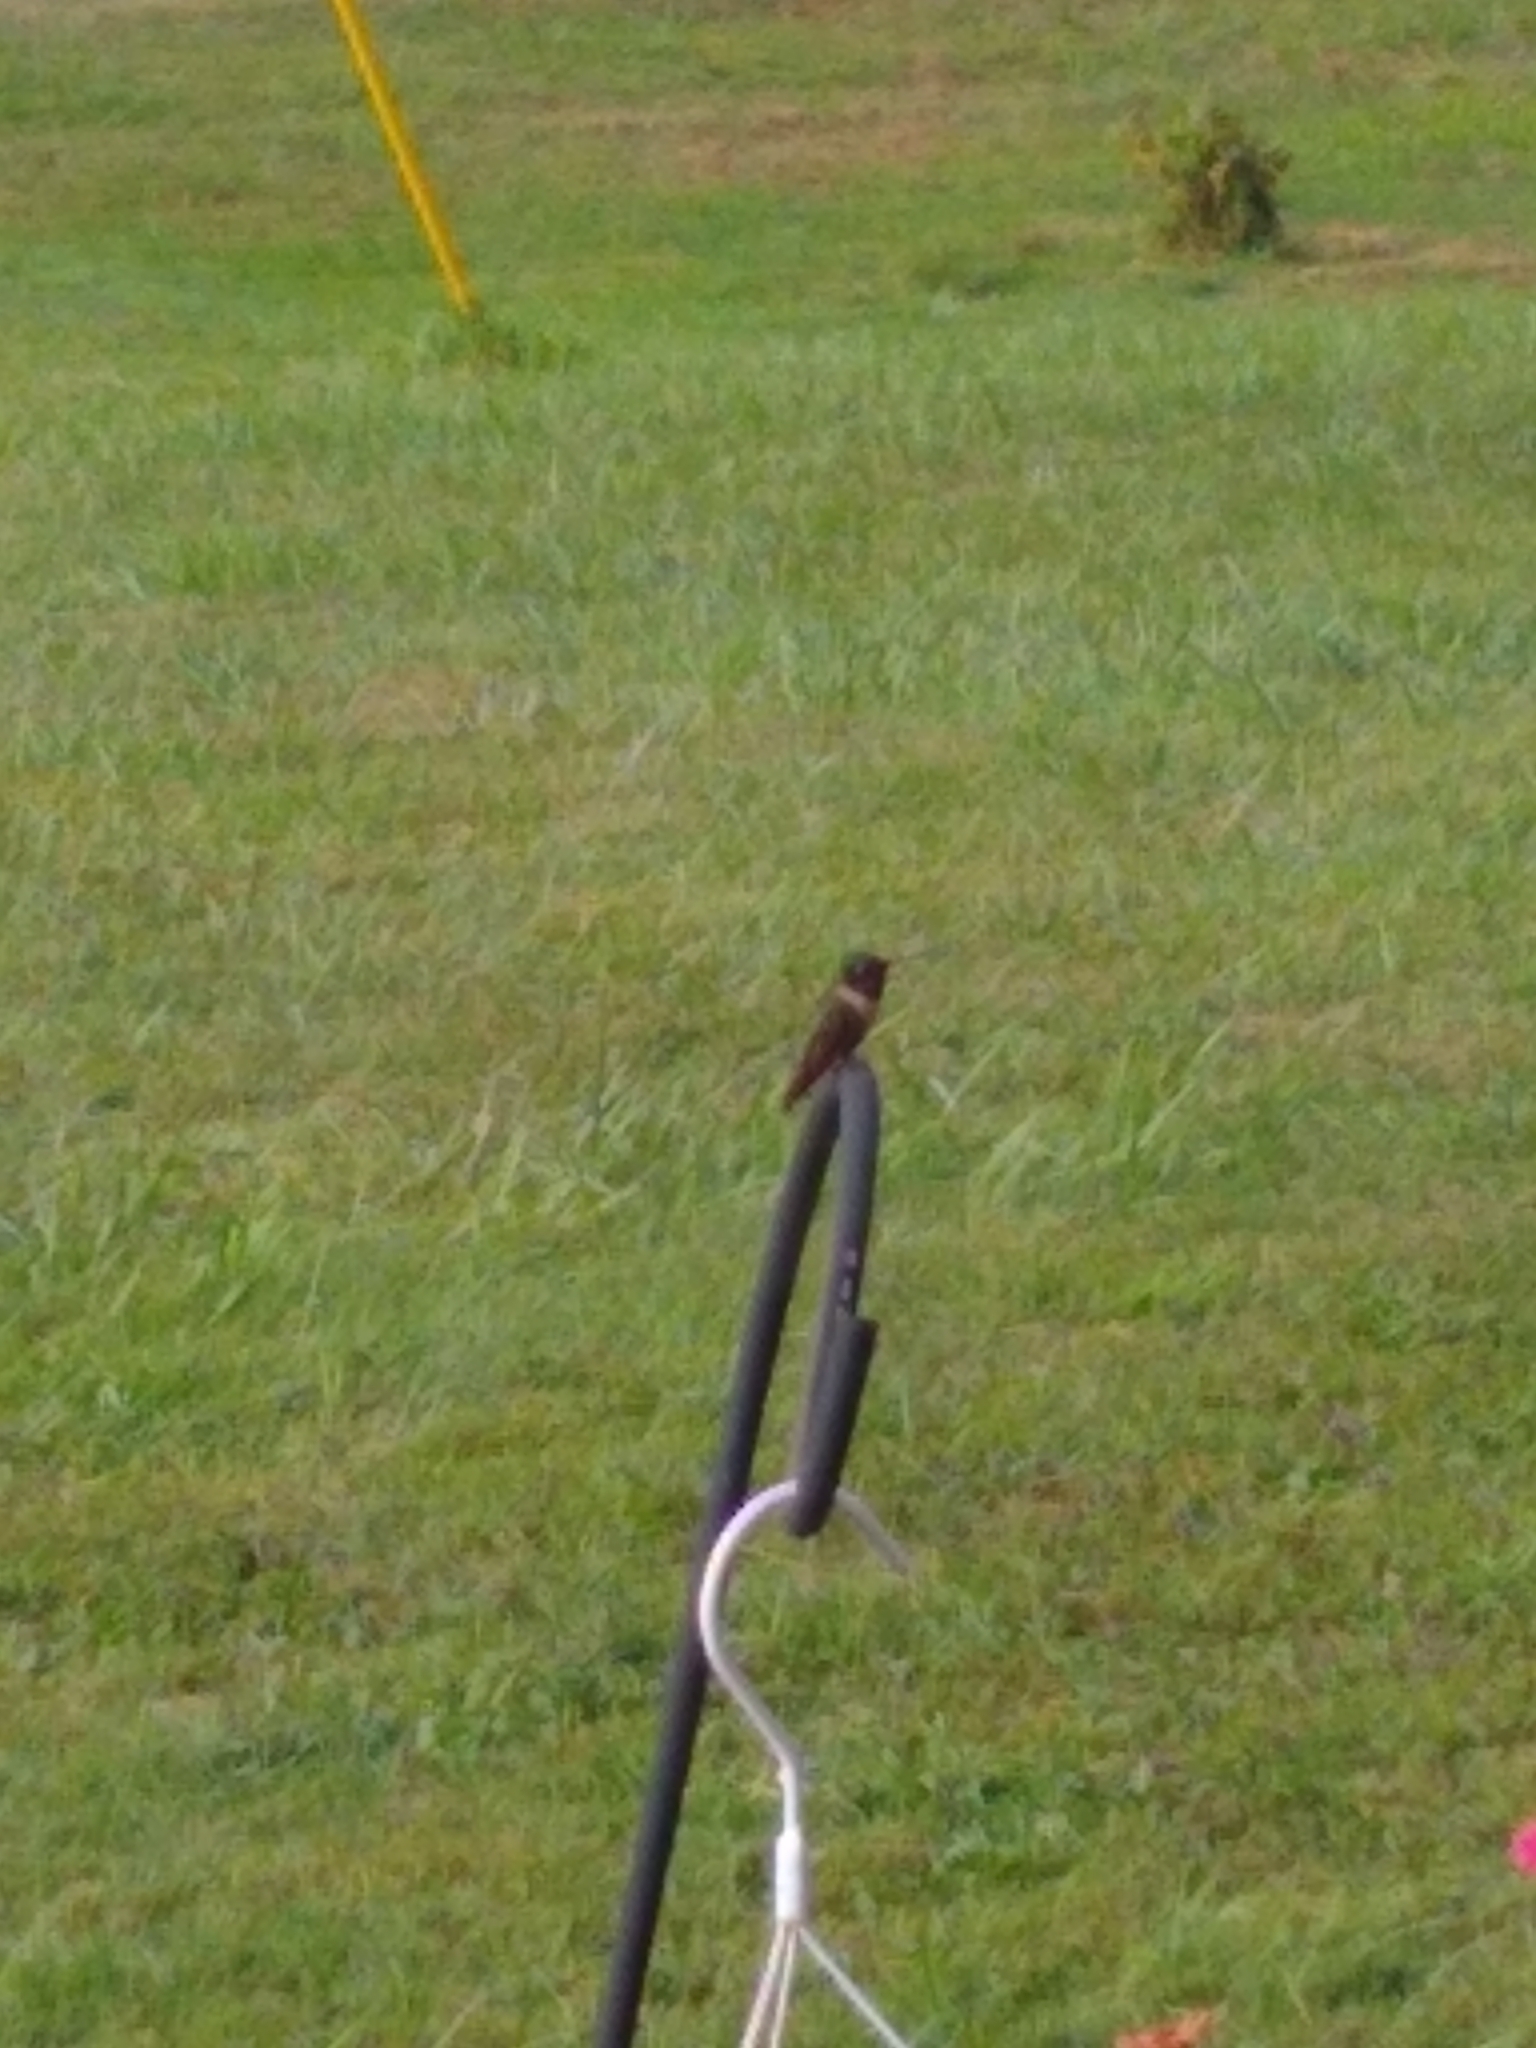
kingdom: Animalia
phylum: Chordata
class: Aves
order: Apodiformes
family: Trochilidae
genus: Archilochus
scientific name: Archilochus colubris
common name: Ruby-throated hummingbird
